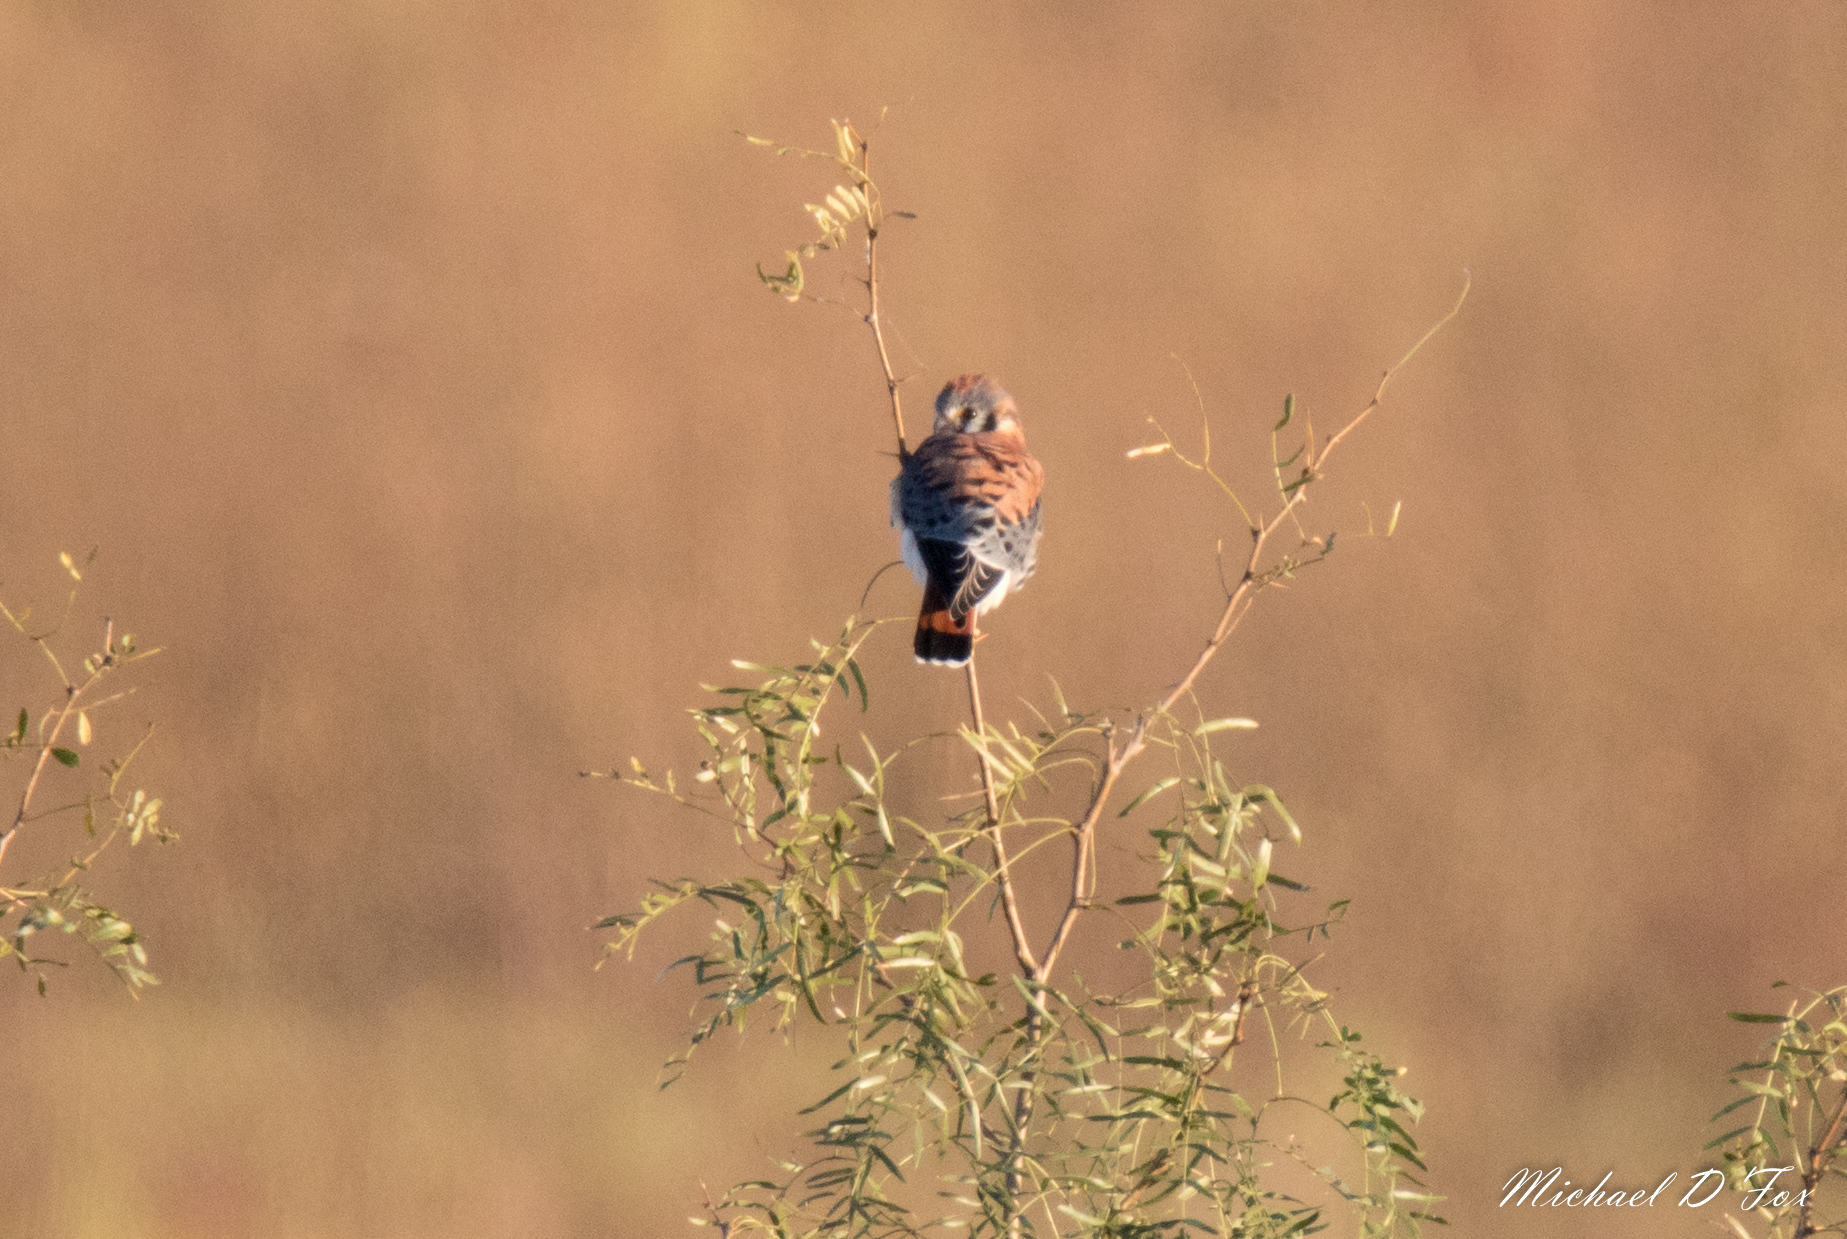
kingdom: Animalia
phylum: Chordata
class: Aves
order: Falconiformes
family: Falconidae
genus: Falco
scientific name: Falco sparverius
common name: American kestrel
